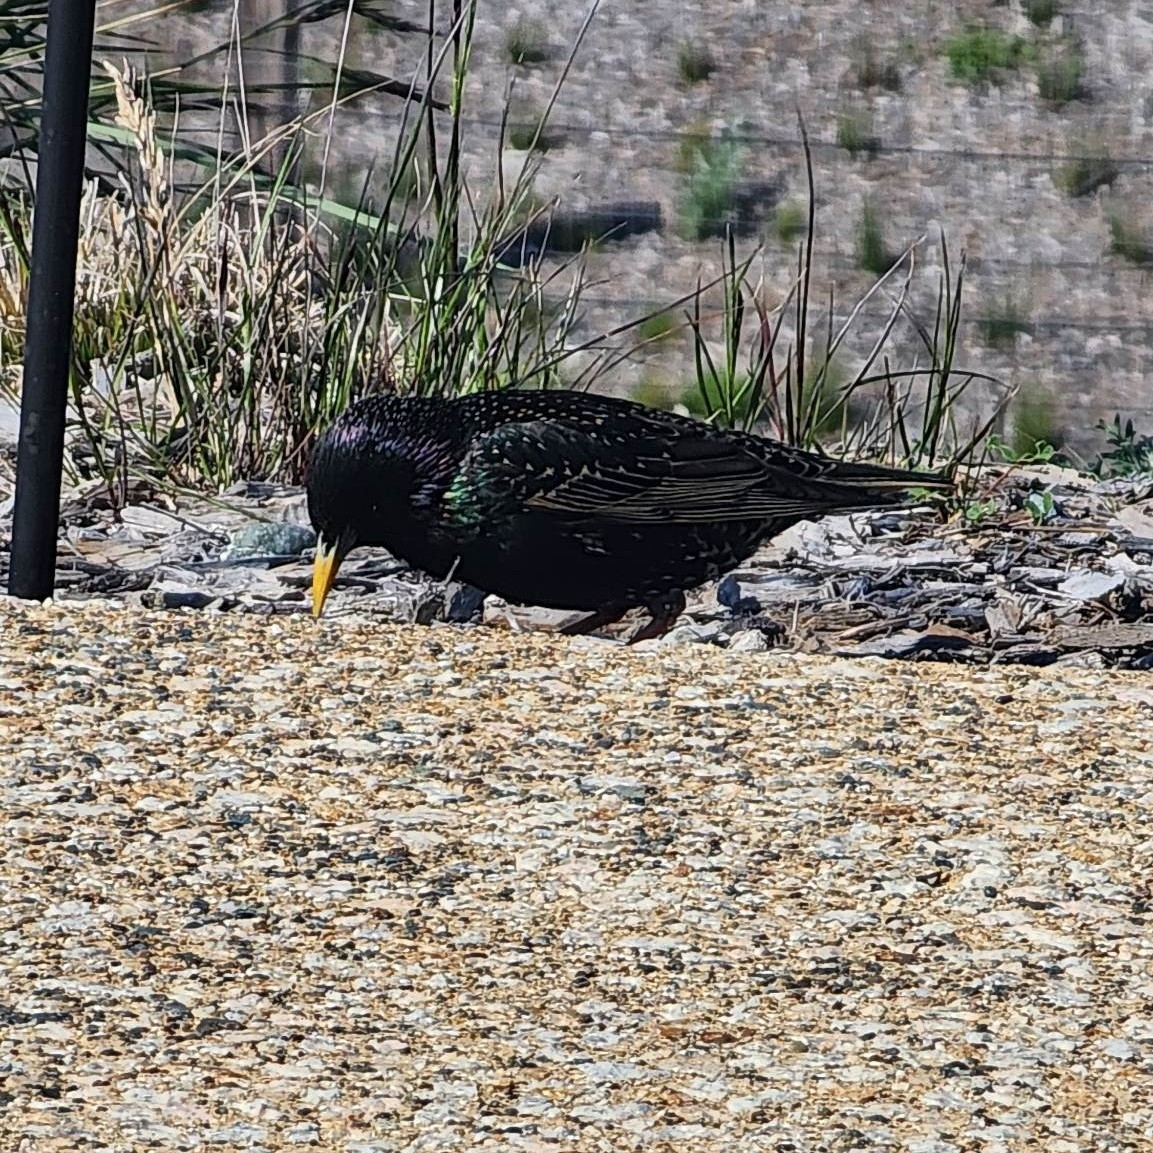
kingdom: Animalia
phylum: Chordata
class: Aves
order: Passeriformes
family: Sturnidae
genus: Sturnus
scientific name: Sturnus vulgaris
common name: Common starling
